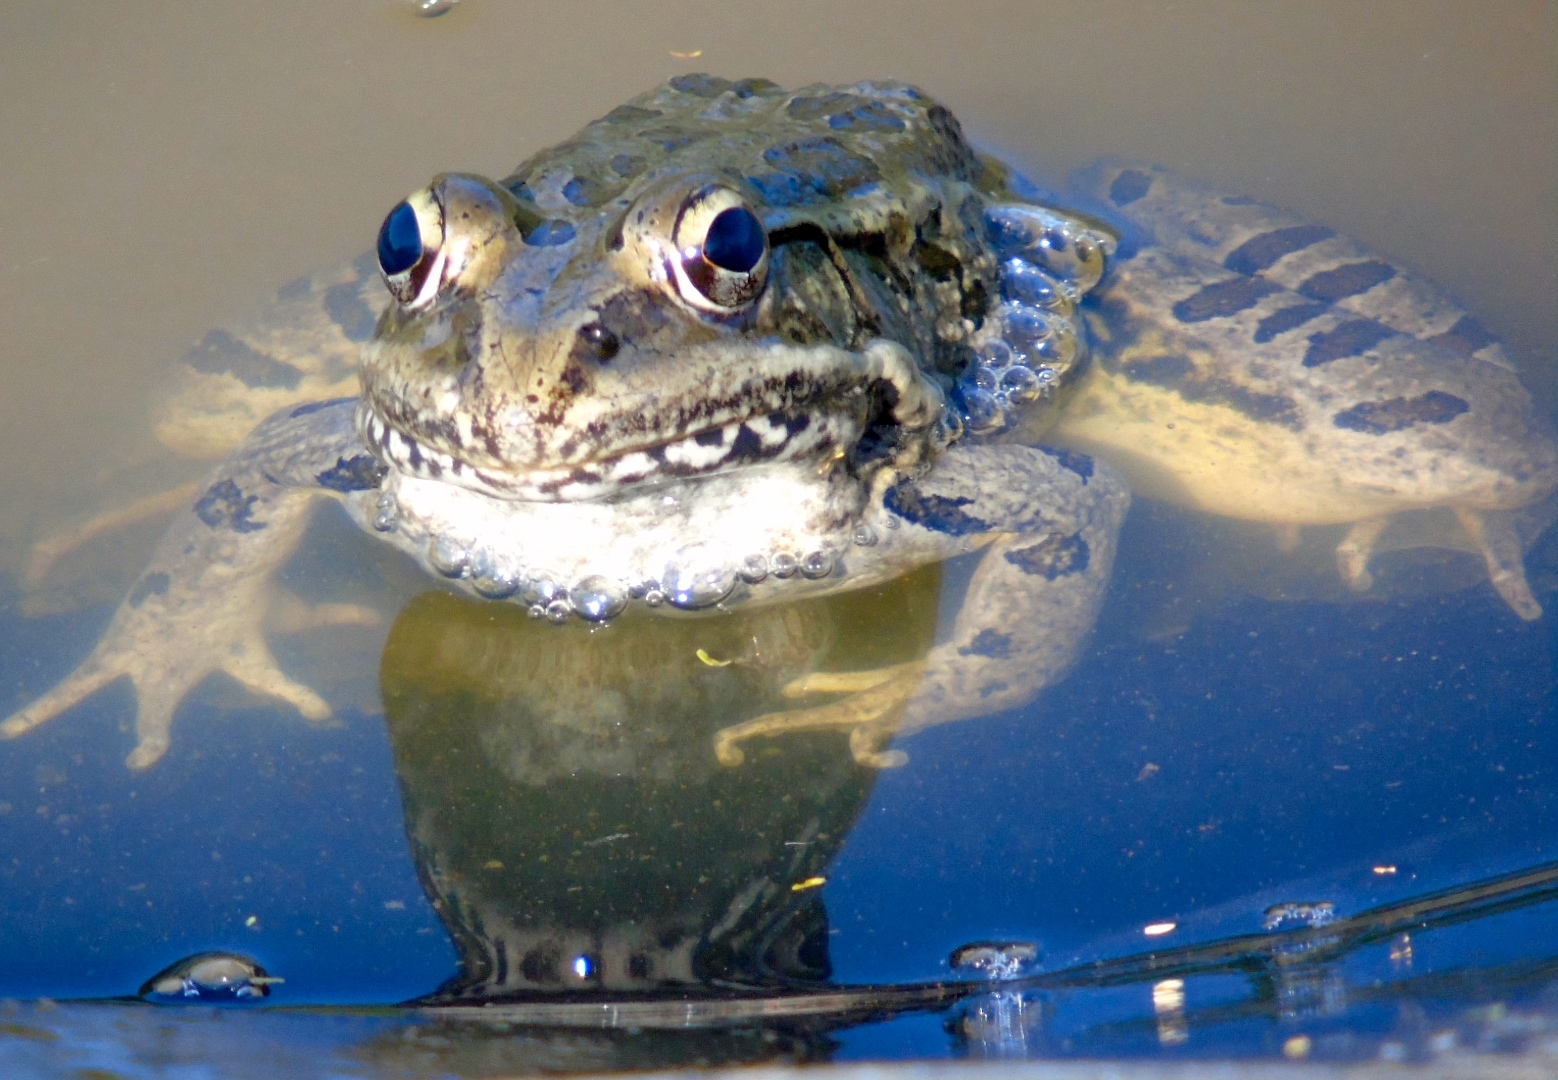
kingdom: Animalia
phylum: Chordata
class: Amphibia
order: Anura
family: Ranidae
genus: Lithobates
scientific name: Lithobates magnaocularis
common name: Northwest mexico leopard frog
